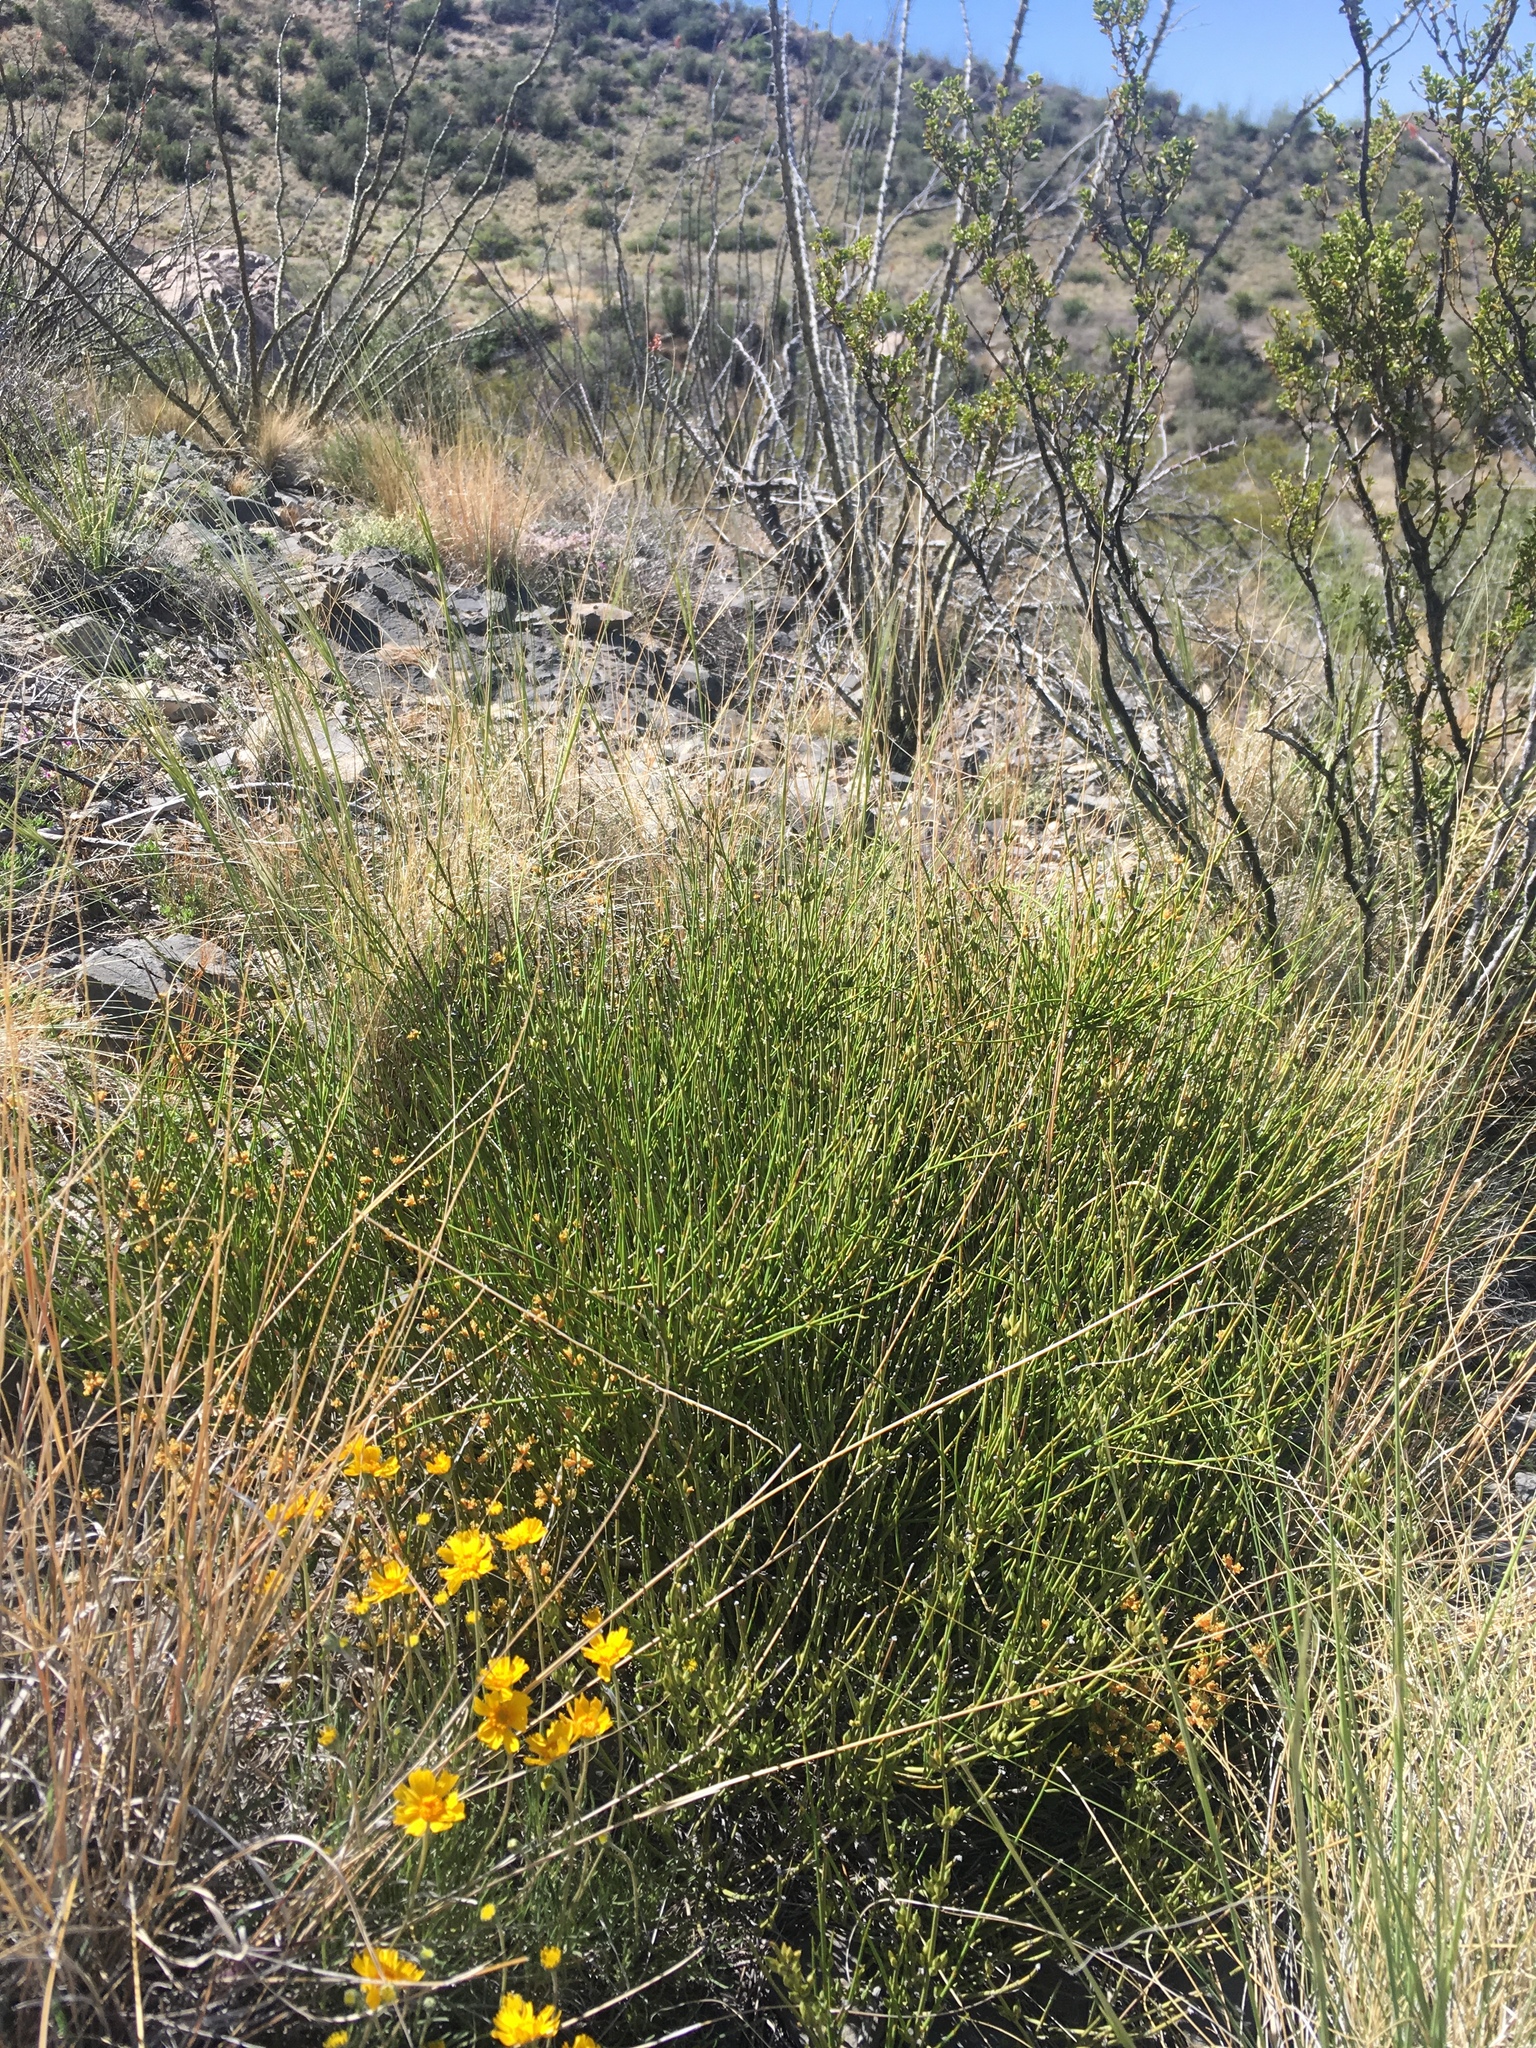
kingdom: Plantae
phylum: Tracheophyta
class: Gnetopsida
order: Ephedrales
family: Ephedraceae
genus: Ephedra
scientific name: Ephedra aspera
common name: Boundary ephedra
